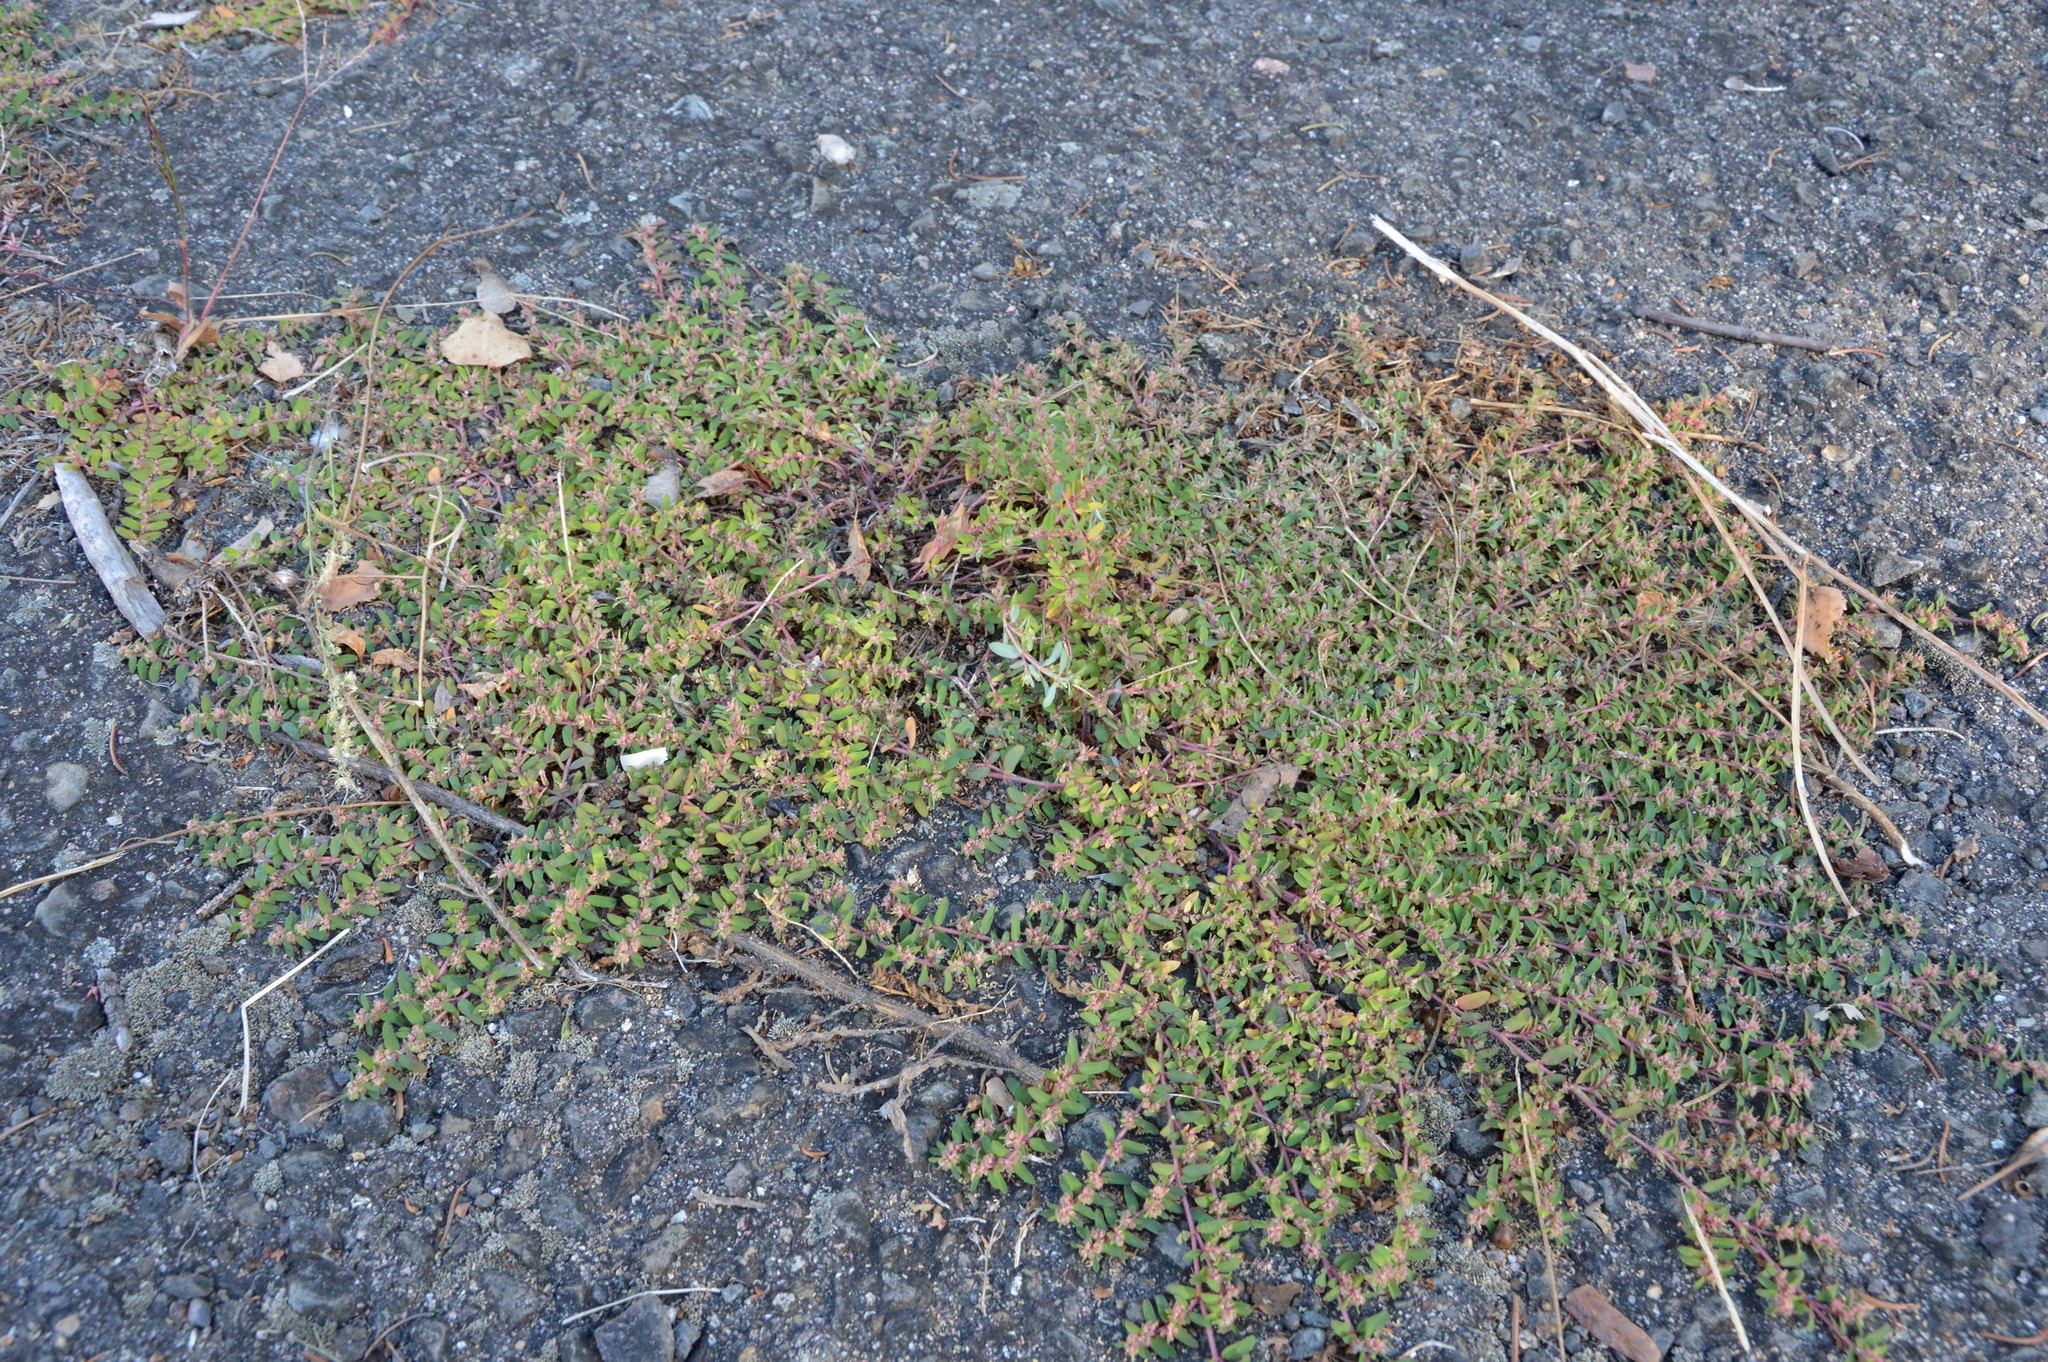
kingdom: Plantae
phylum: Tracheophyta
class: Magnoliopsida
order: Malpighiales
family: Euphorbiaceae
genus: Euphorbia
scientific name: Euphorbia maculata
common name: Spotted spurge
